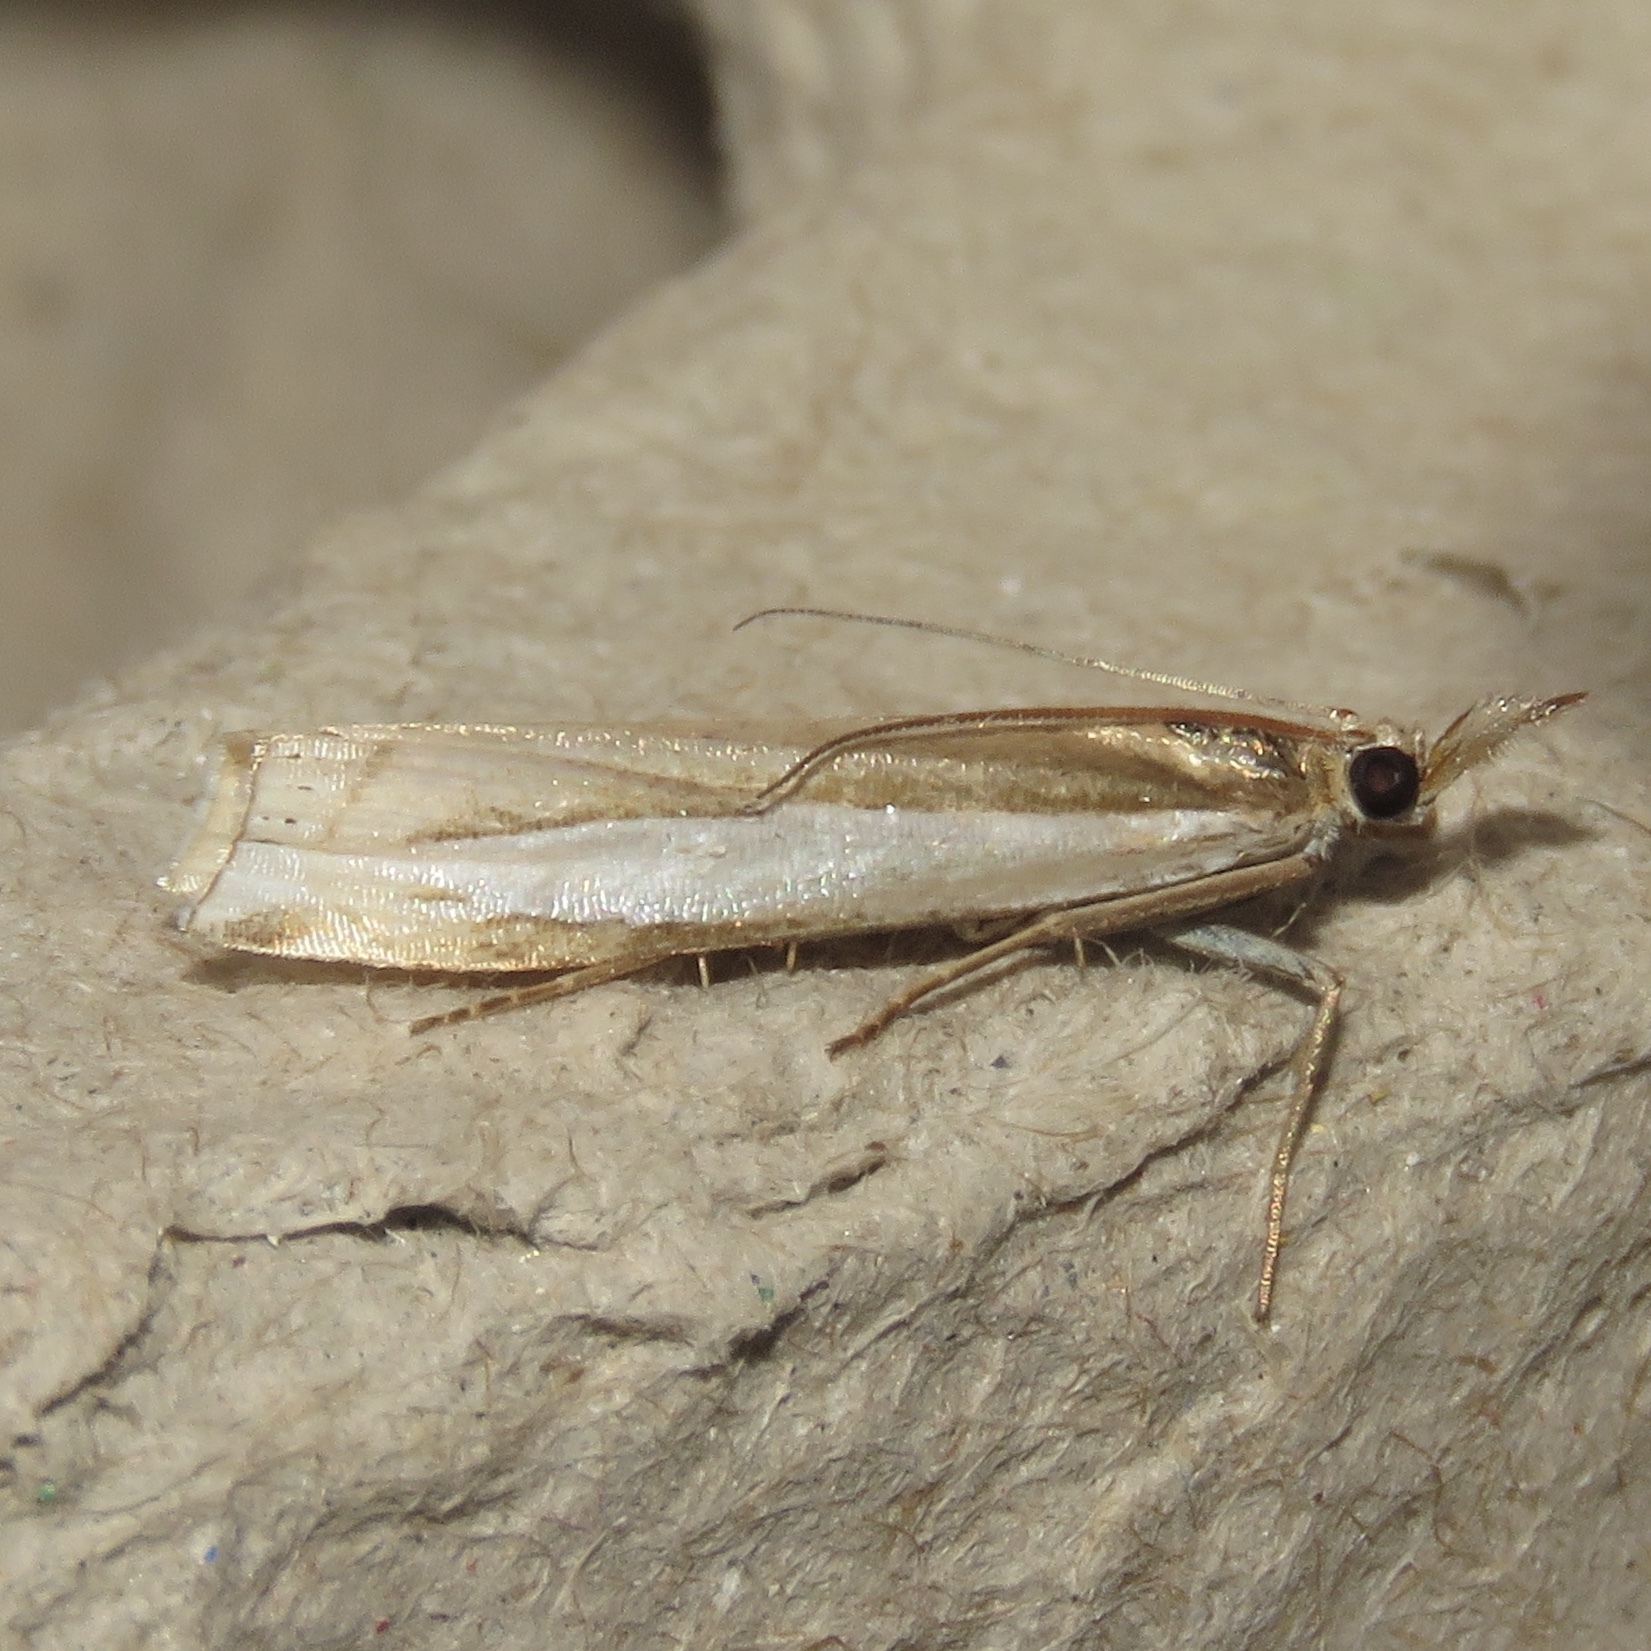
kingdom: Animalia
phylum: Arthropoda
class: Insecta
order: Lepidoptera
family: Crambidae
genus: Crambus
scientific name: Crambus leachellus
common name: Leach's grass-veneer
